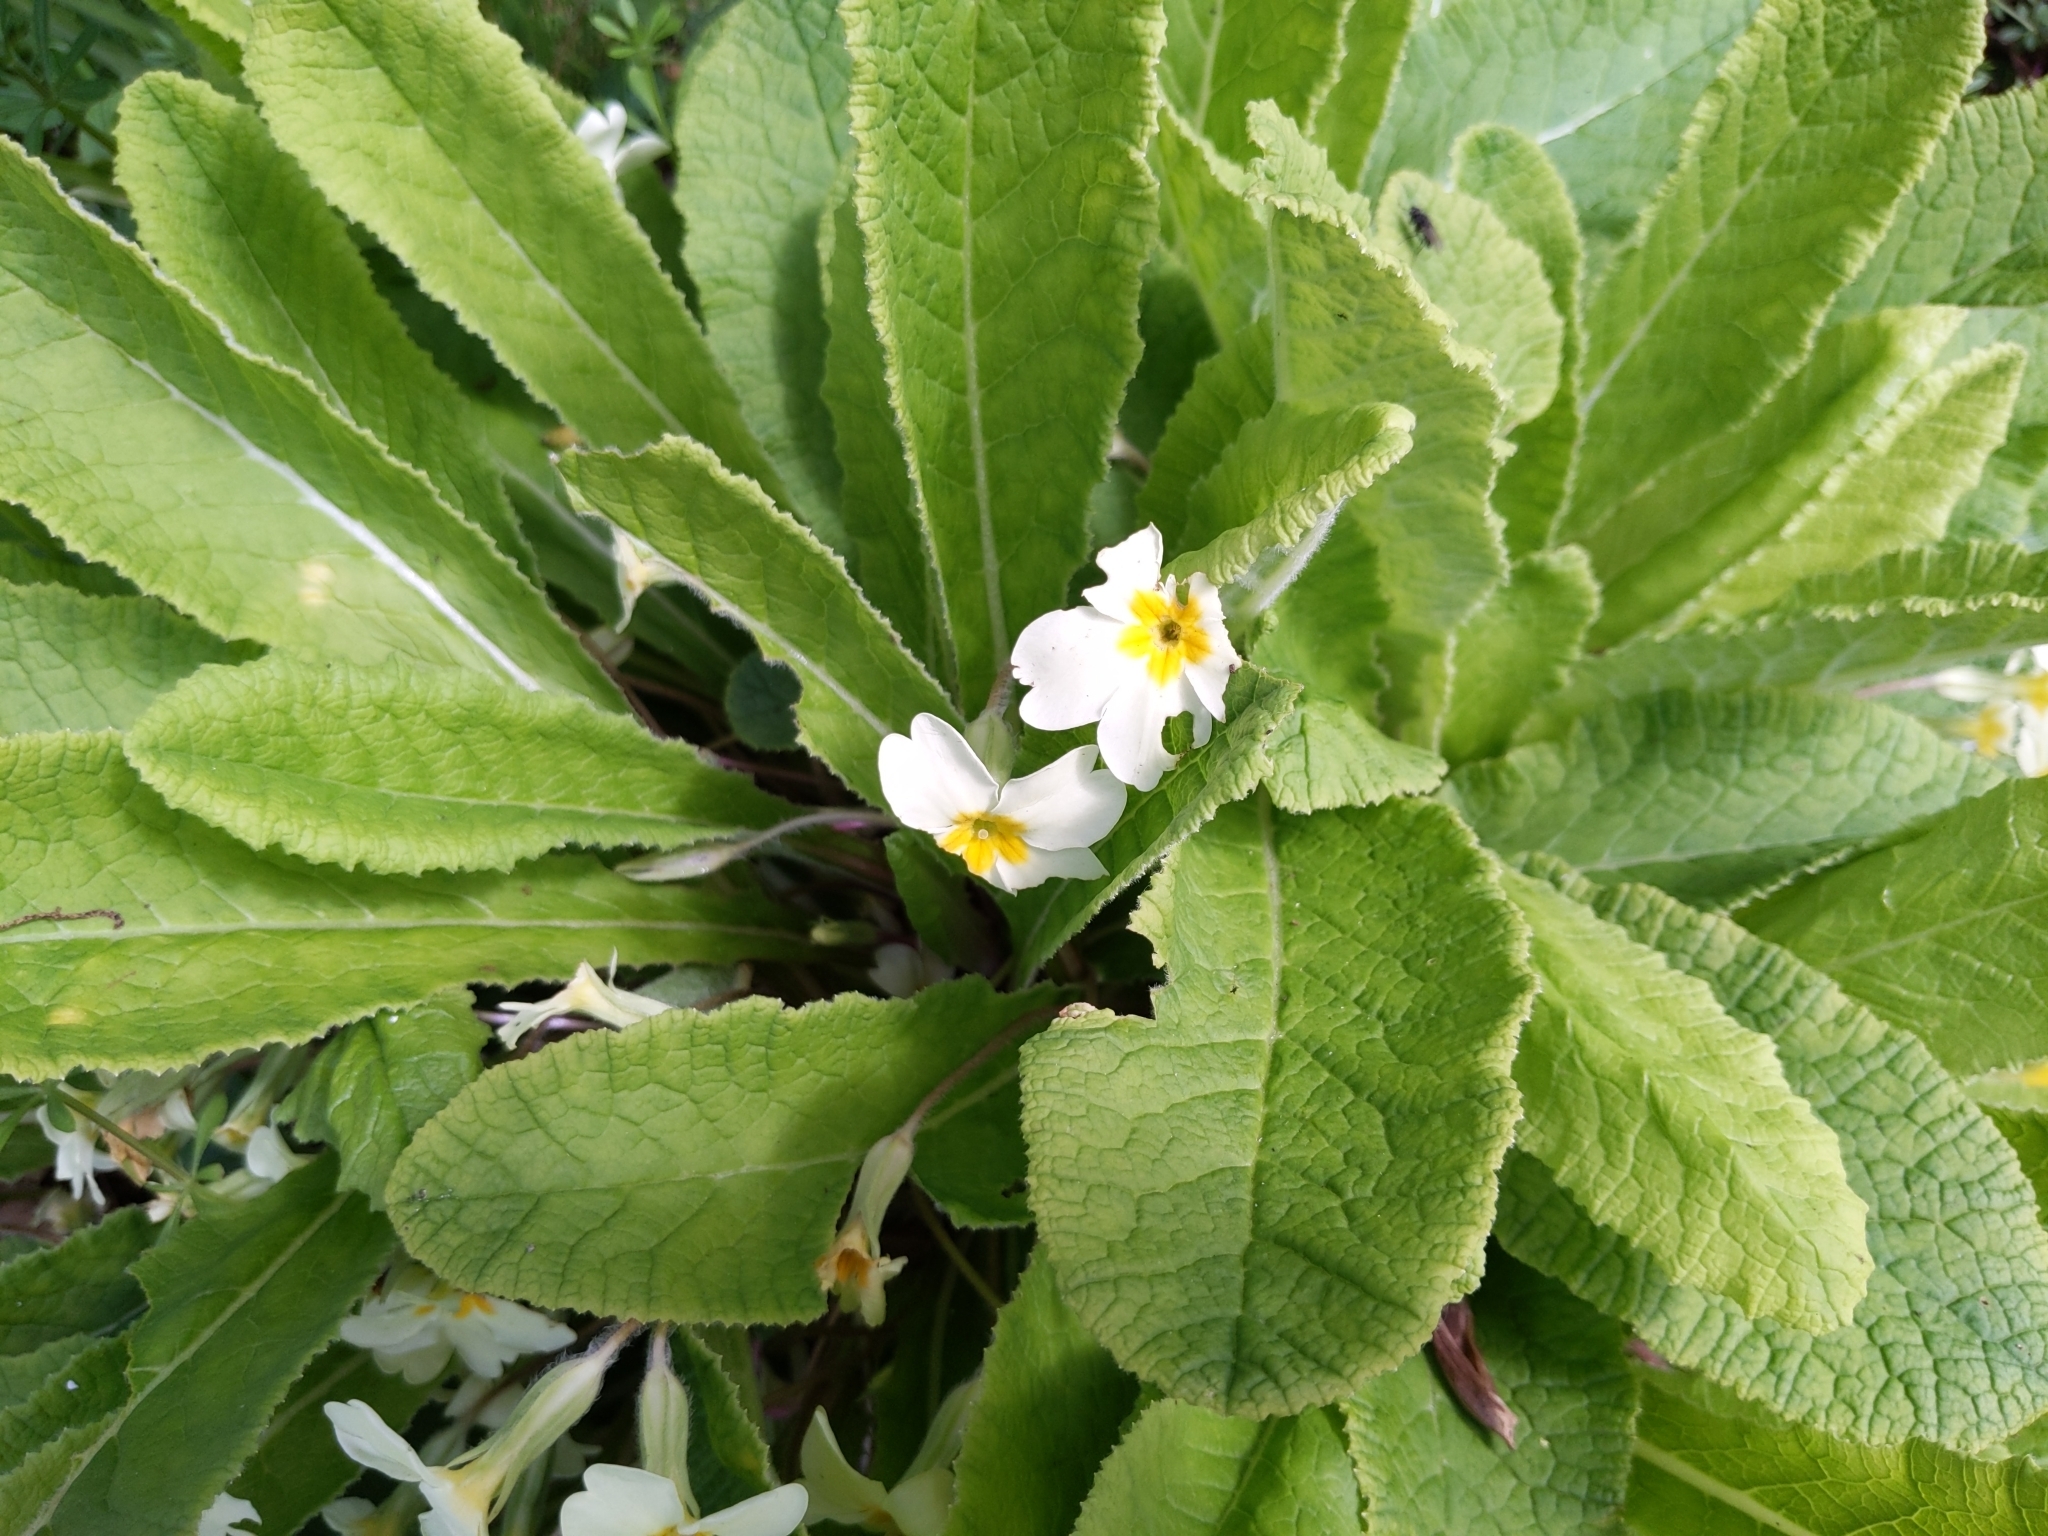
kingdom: Plantae
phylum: Tracheophyta
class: Magnoliopsida
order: Ericales
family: Primulaceae
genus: Primula
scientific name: Primula vulgaris
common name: Primrose
